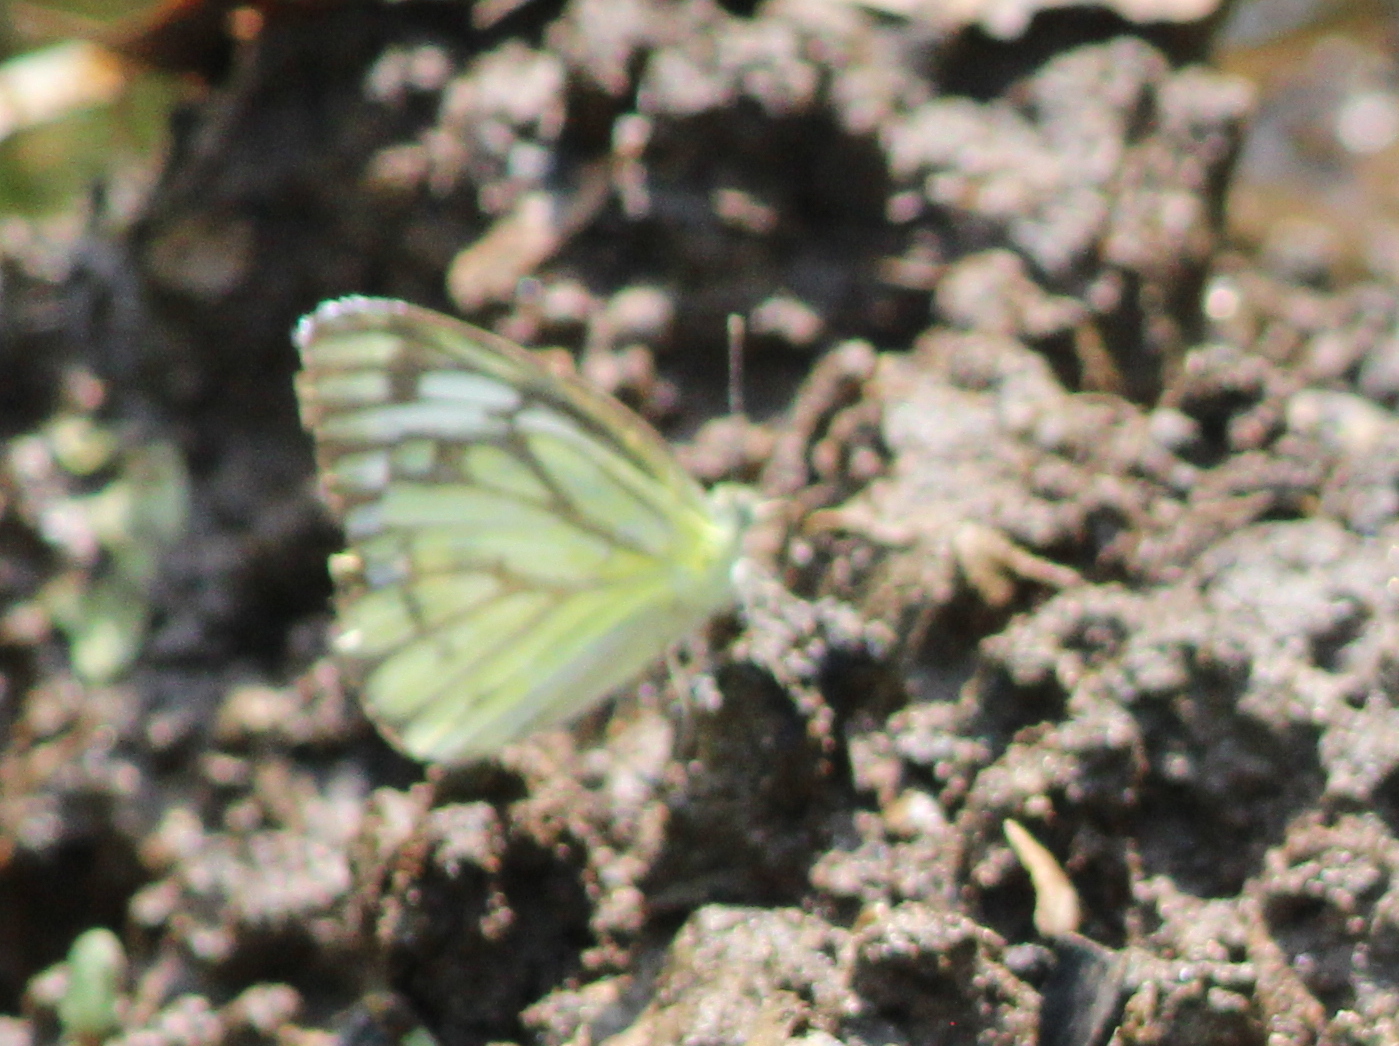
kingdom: Animalia
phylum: Arthropoda
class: Insecta
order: Lepidoptera
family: Pieridae
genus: Cepora
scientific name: Cepora nerissa
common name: Common gull
